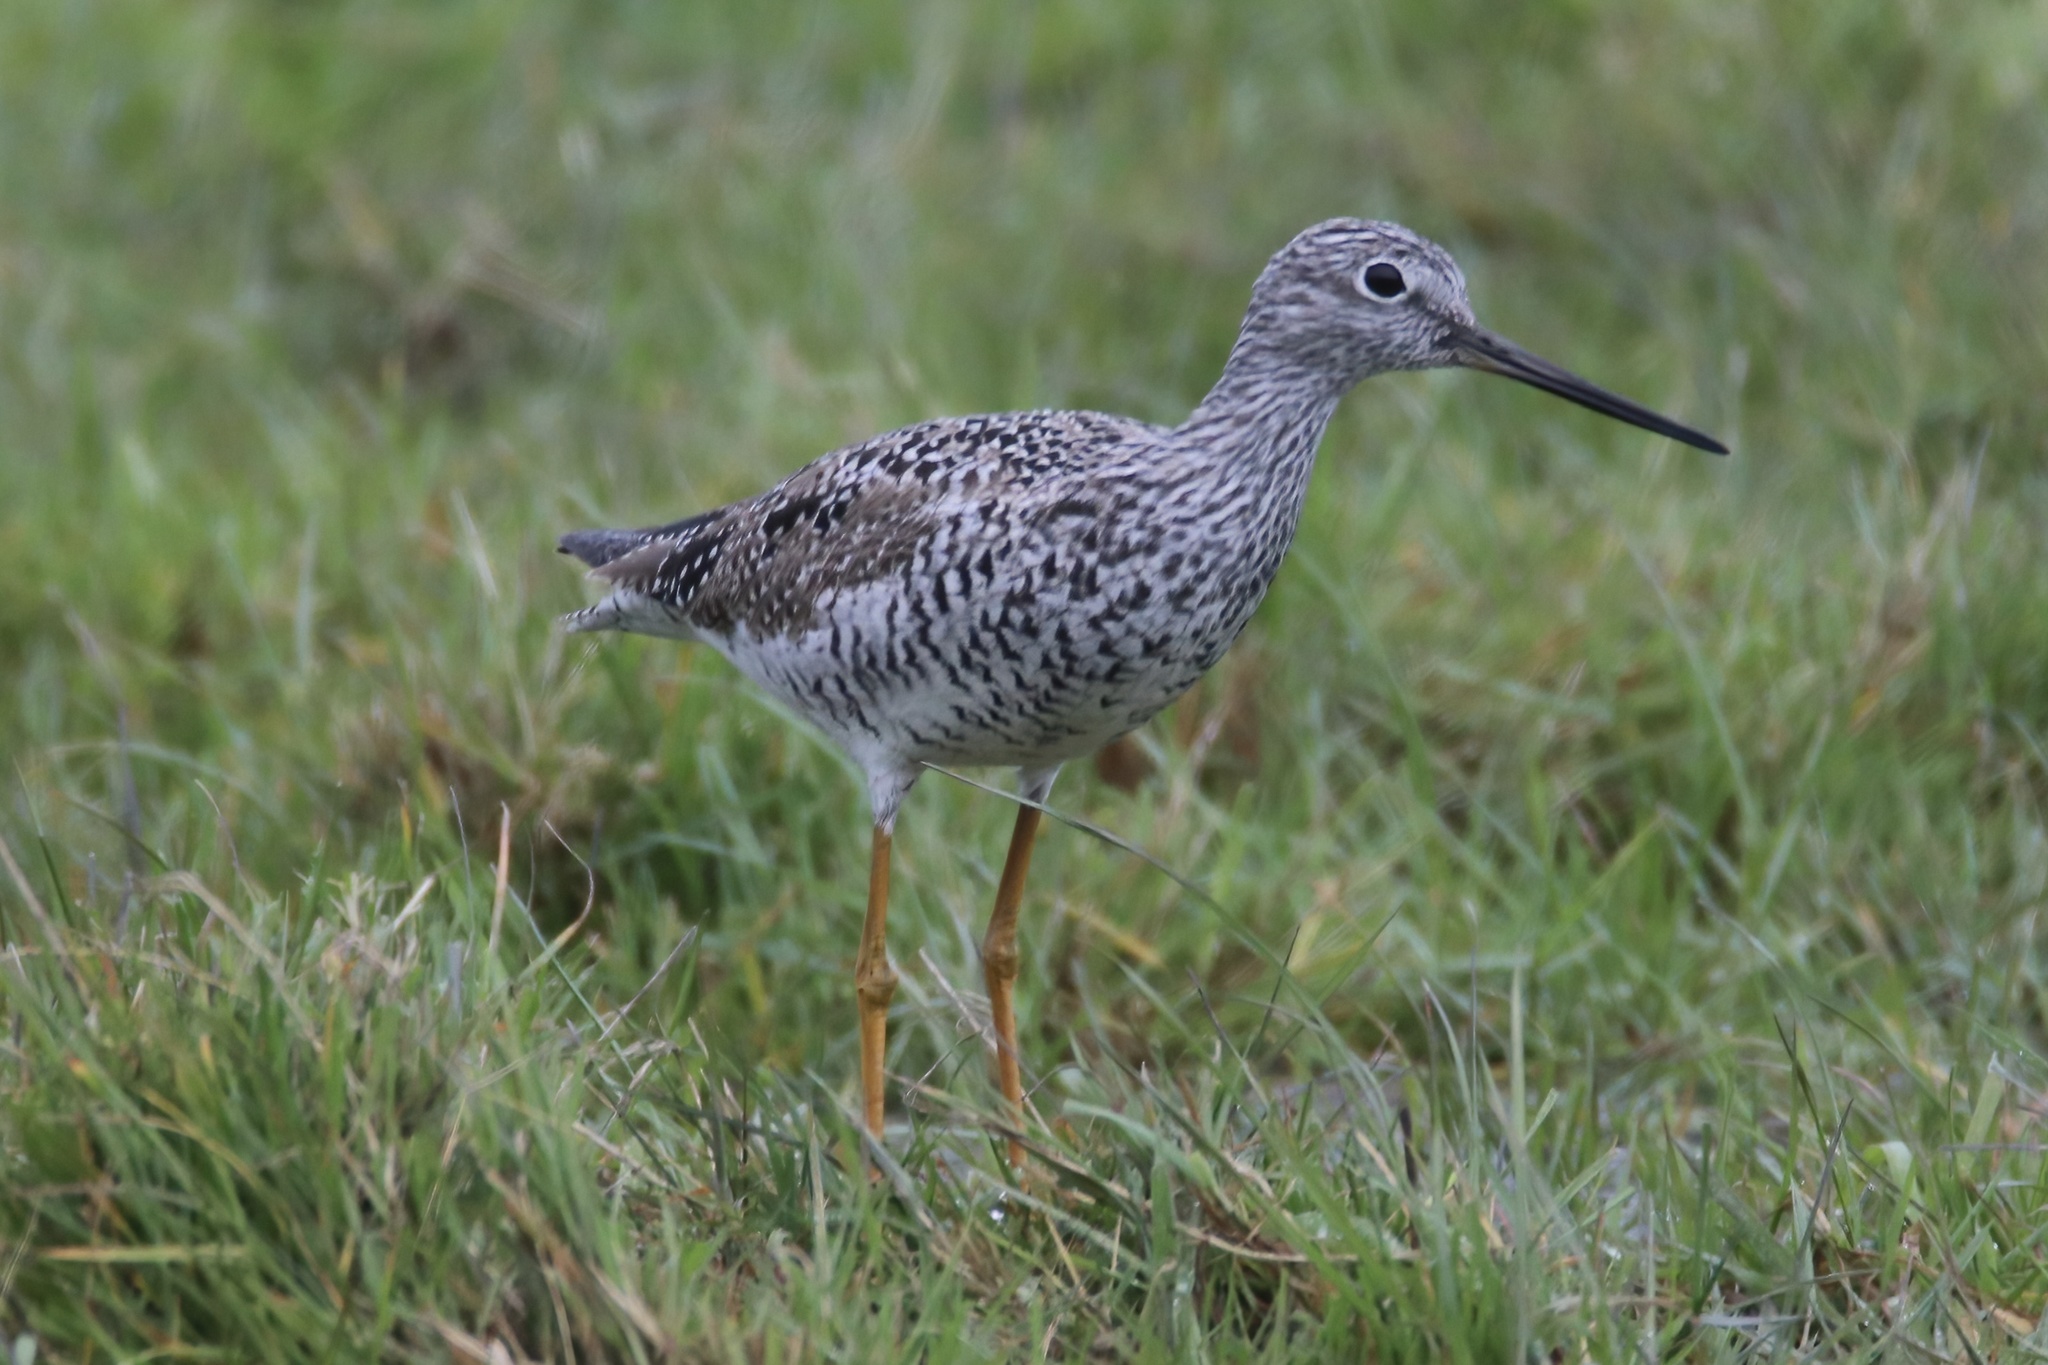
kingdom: Animalia
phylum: Chordata
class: Aves
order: Charadriiformes
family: Scolopacidae
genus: Tringa
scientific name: Tringa melanoleuca
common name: Greater yellowlegs
